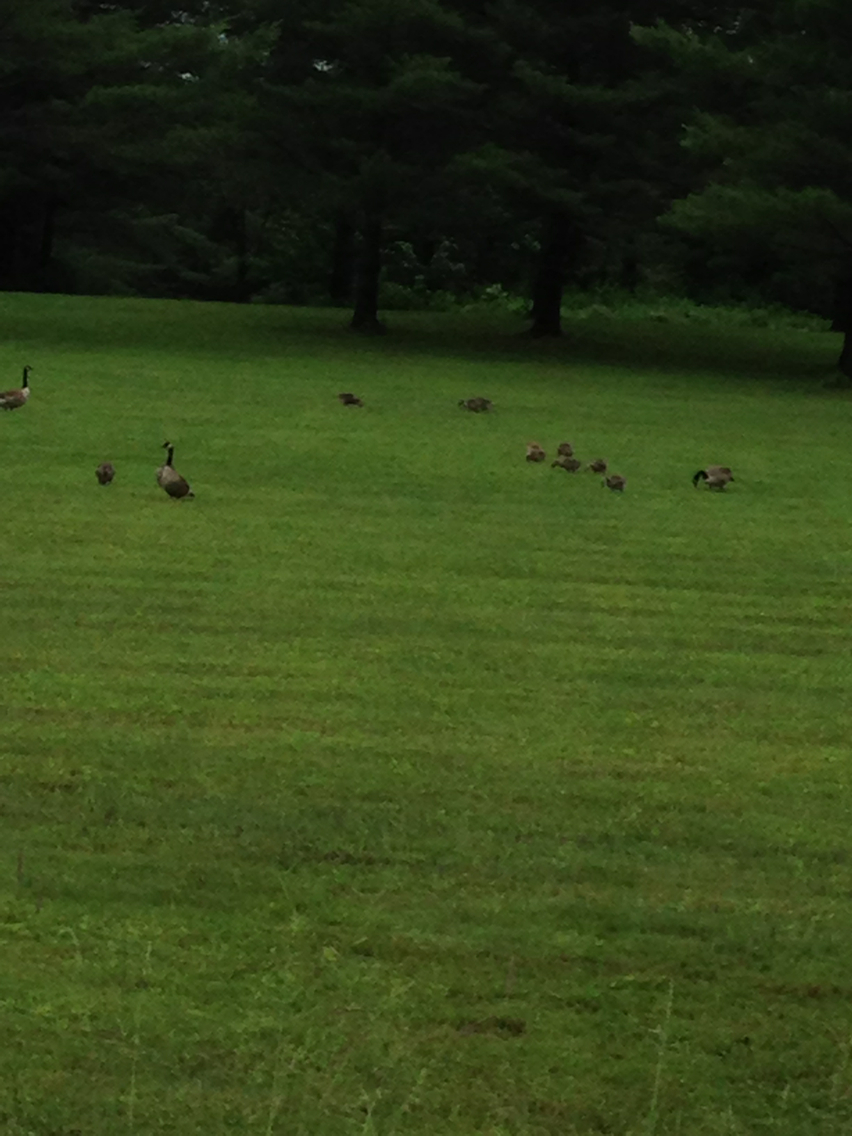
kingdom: Animalia
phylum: Chordata
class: Aves
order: Anseriformes
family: Anatidae
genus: Branta
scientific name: Branta canadensis
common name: Canada goose
